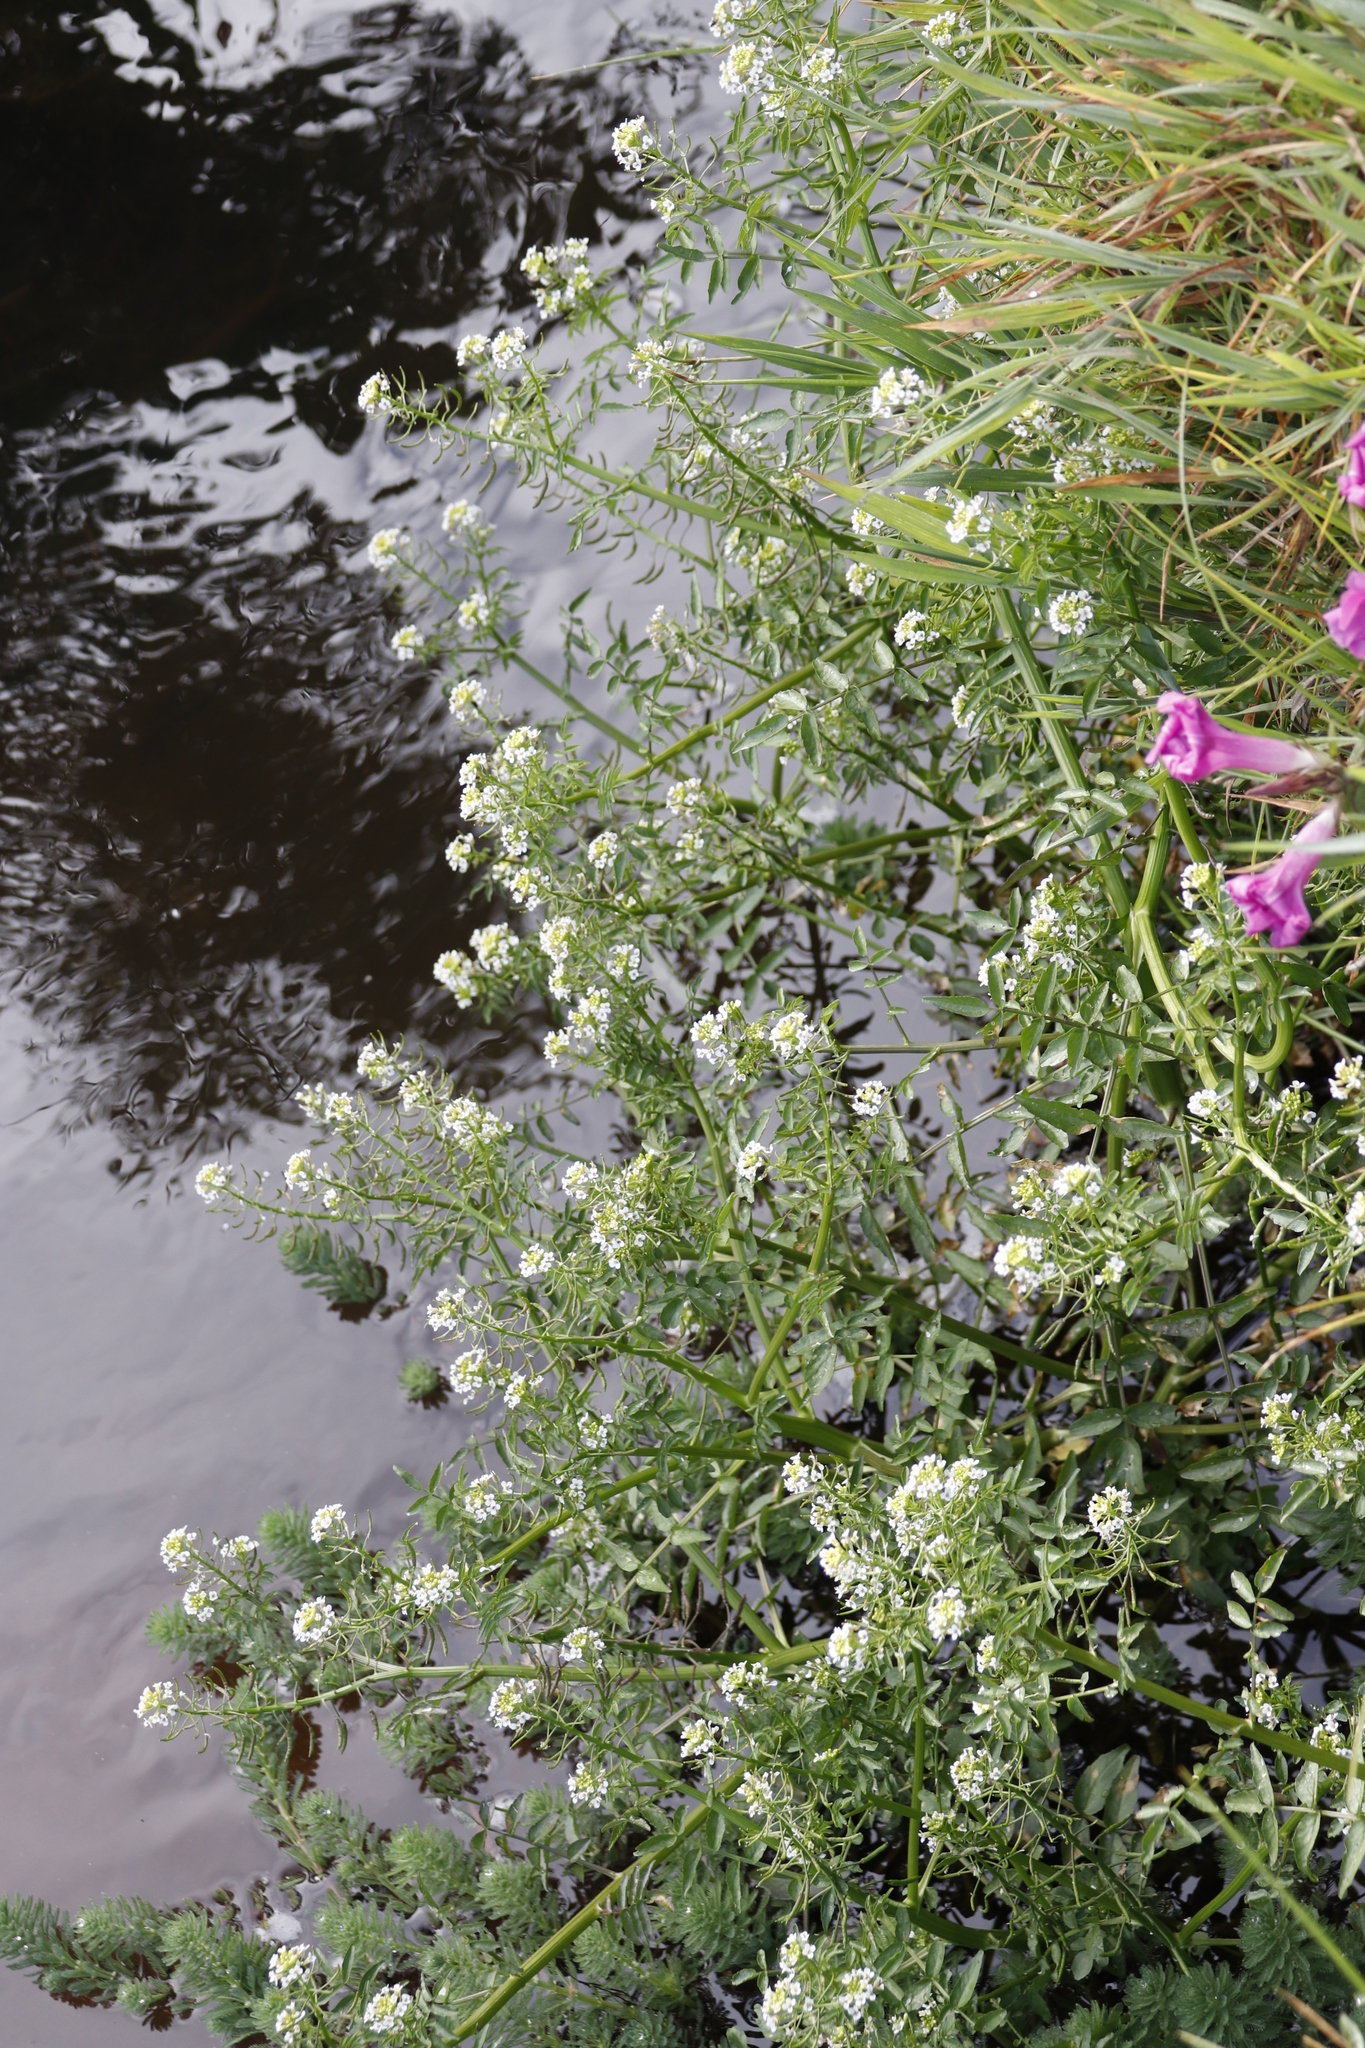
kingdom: Plantae
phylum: Tracheophyta
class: Magnoliopsida
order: Brassicales
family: Brassicaceae
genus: Nasturtium
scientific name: Nasturtium officinale
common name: Watercress
